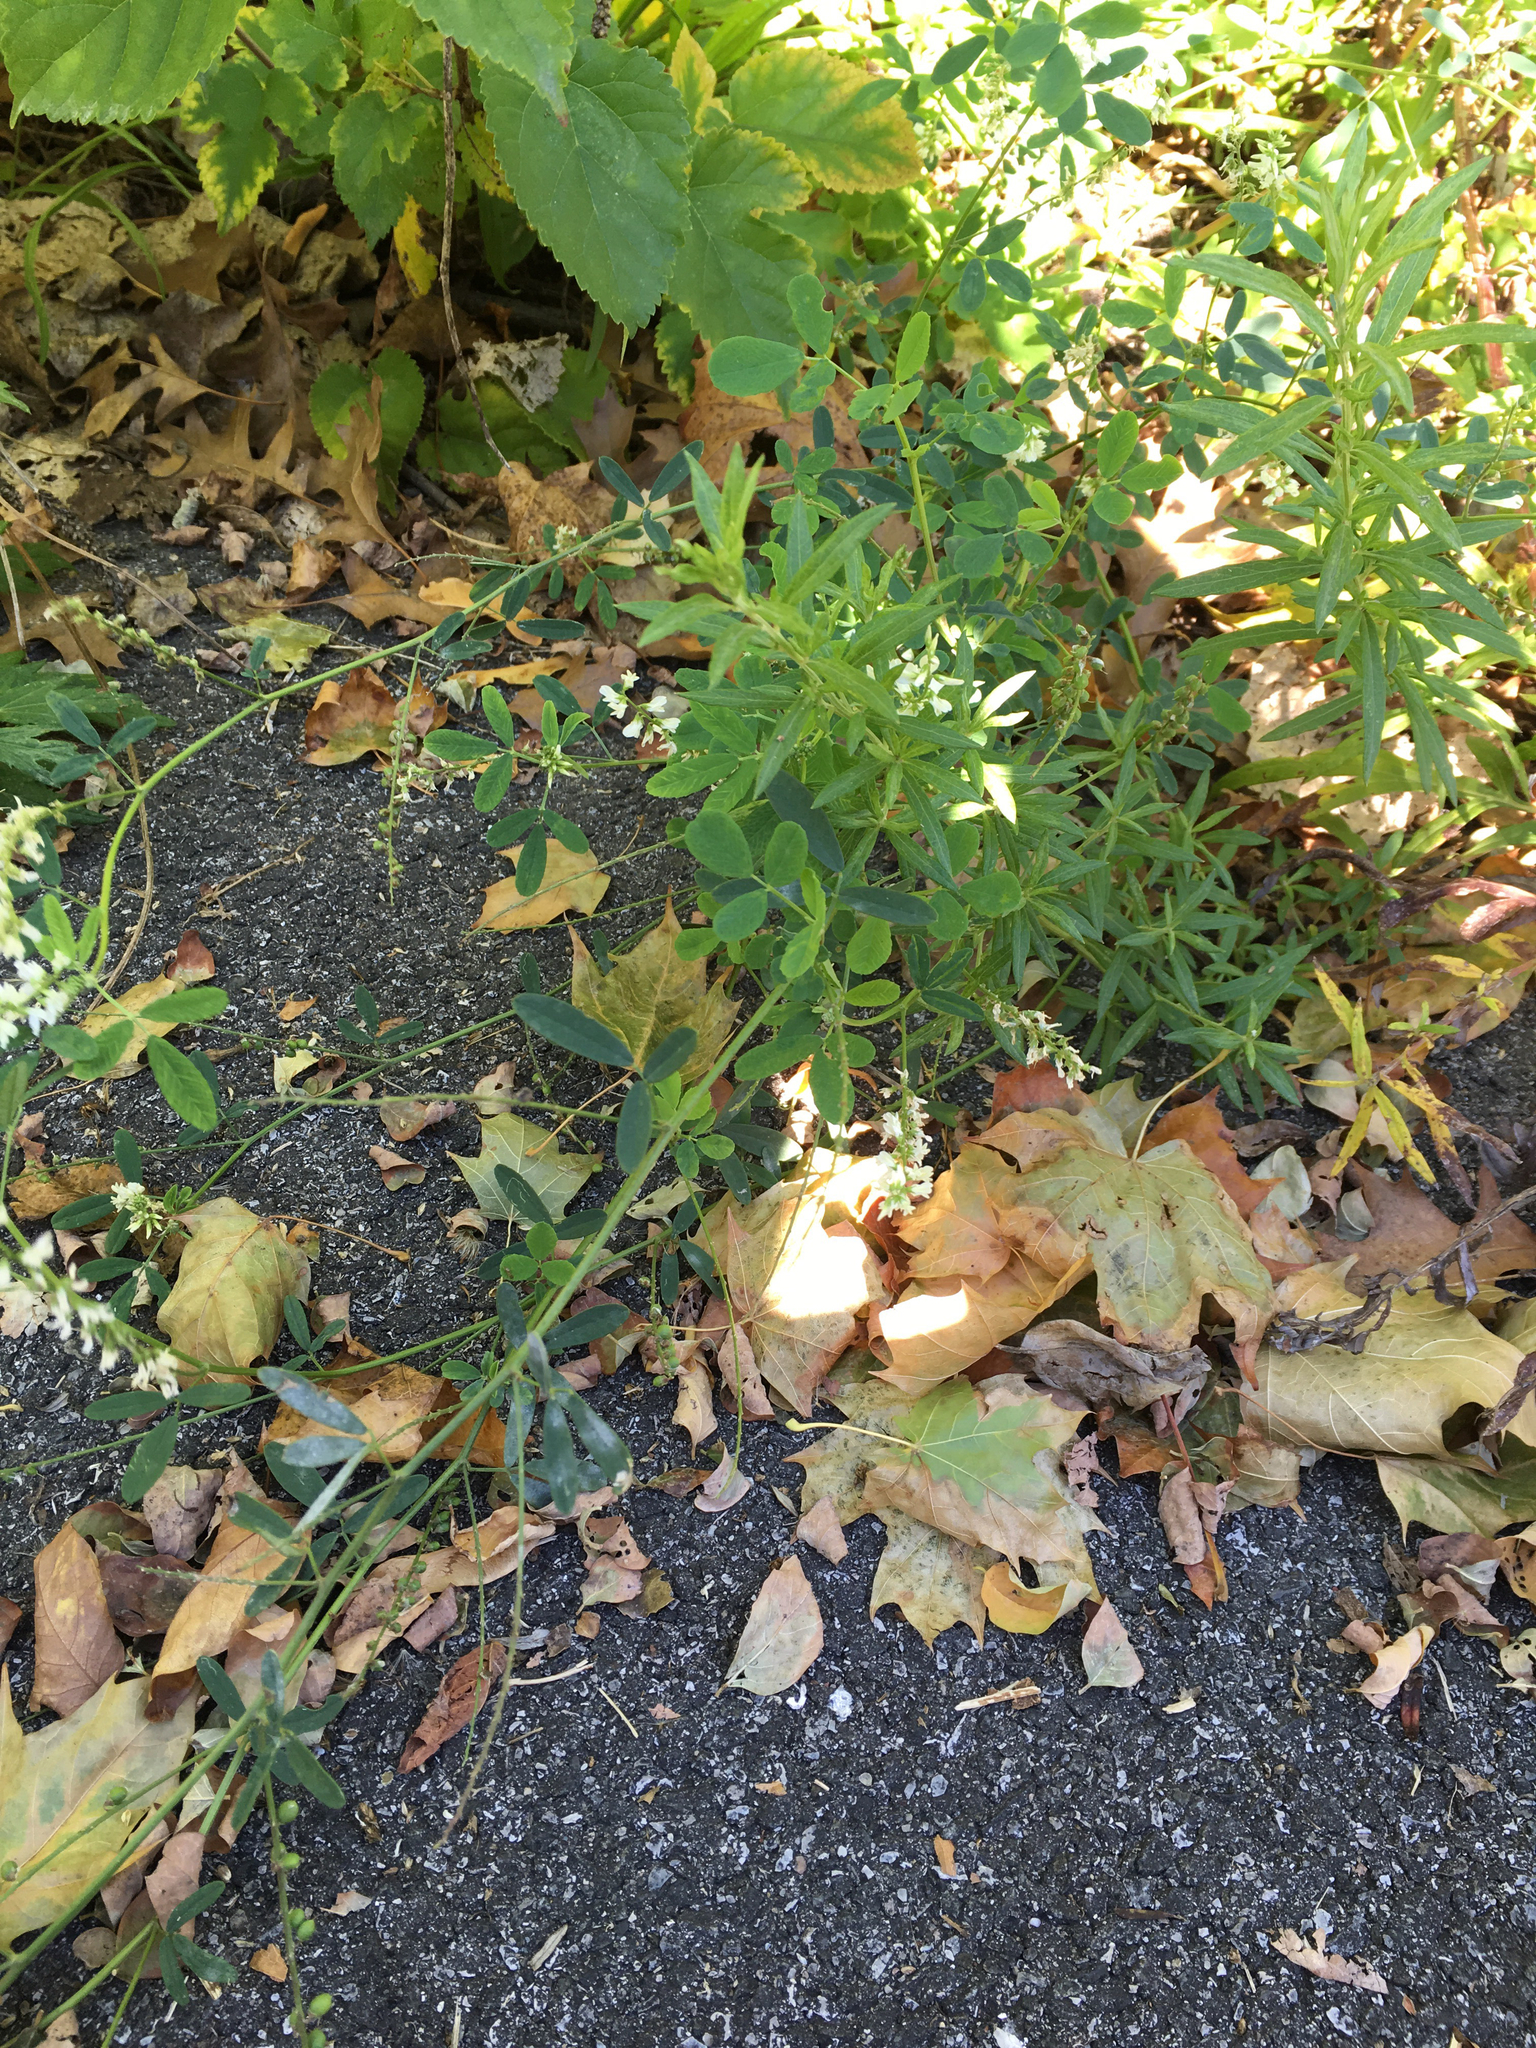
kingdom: Plantae
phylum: Tracheophyta
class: Magnoliopsida
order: Fabales
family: Fabaceae
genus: Melilotus
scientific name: Melilotus albus
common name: White melilot
